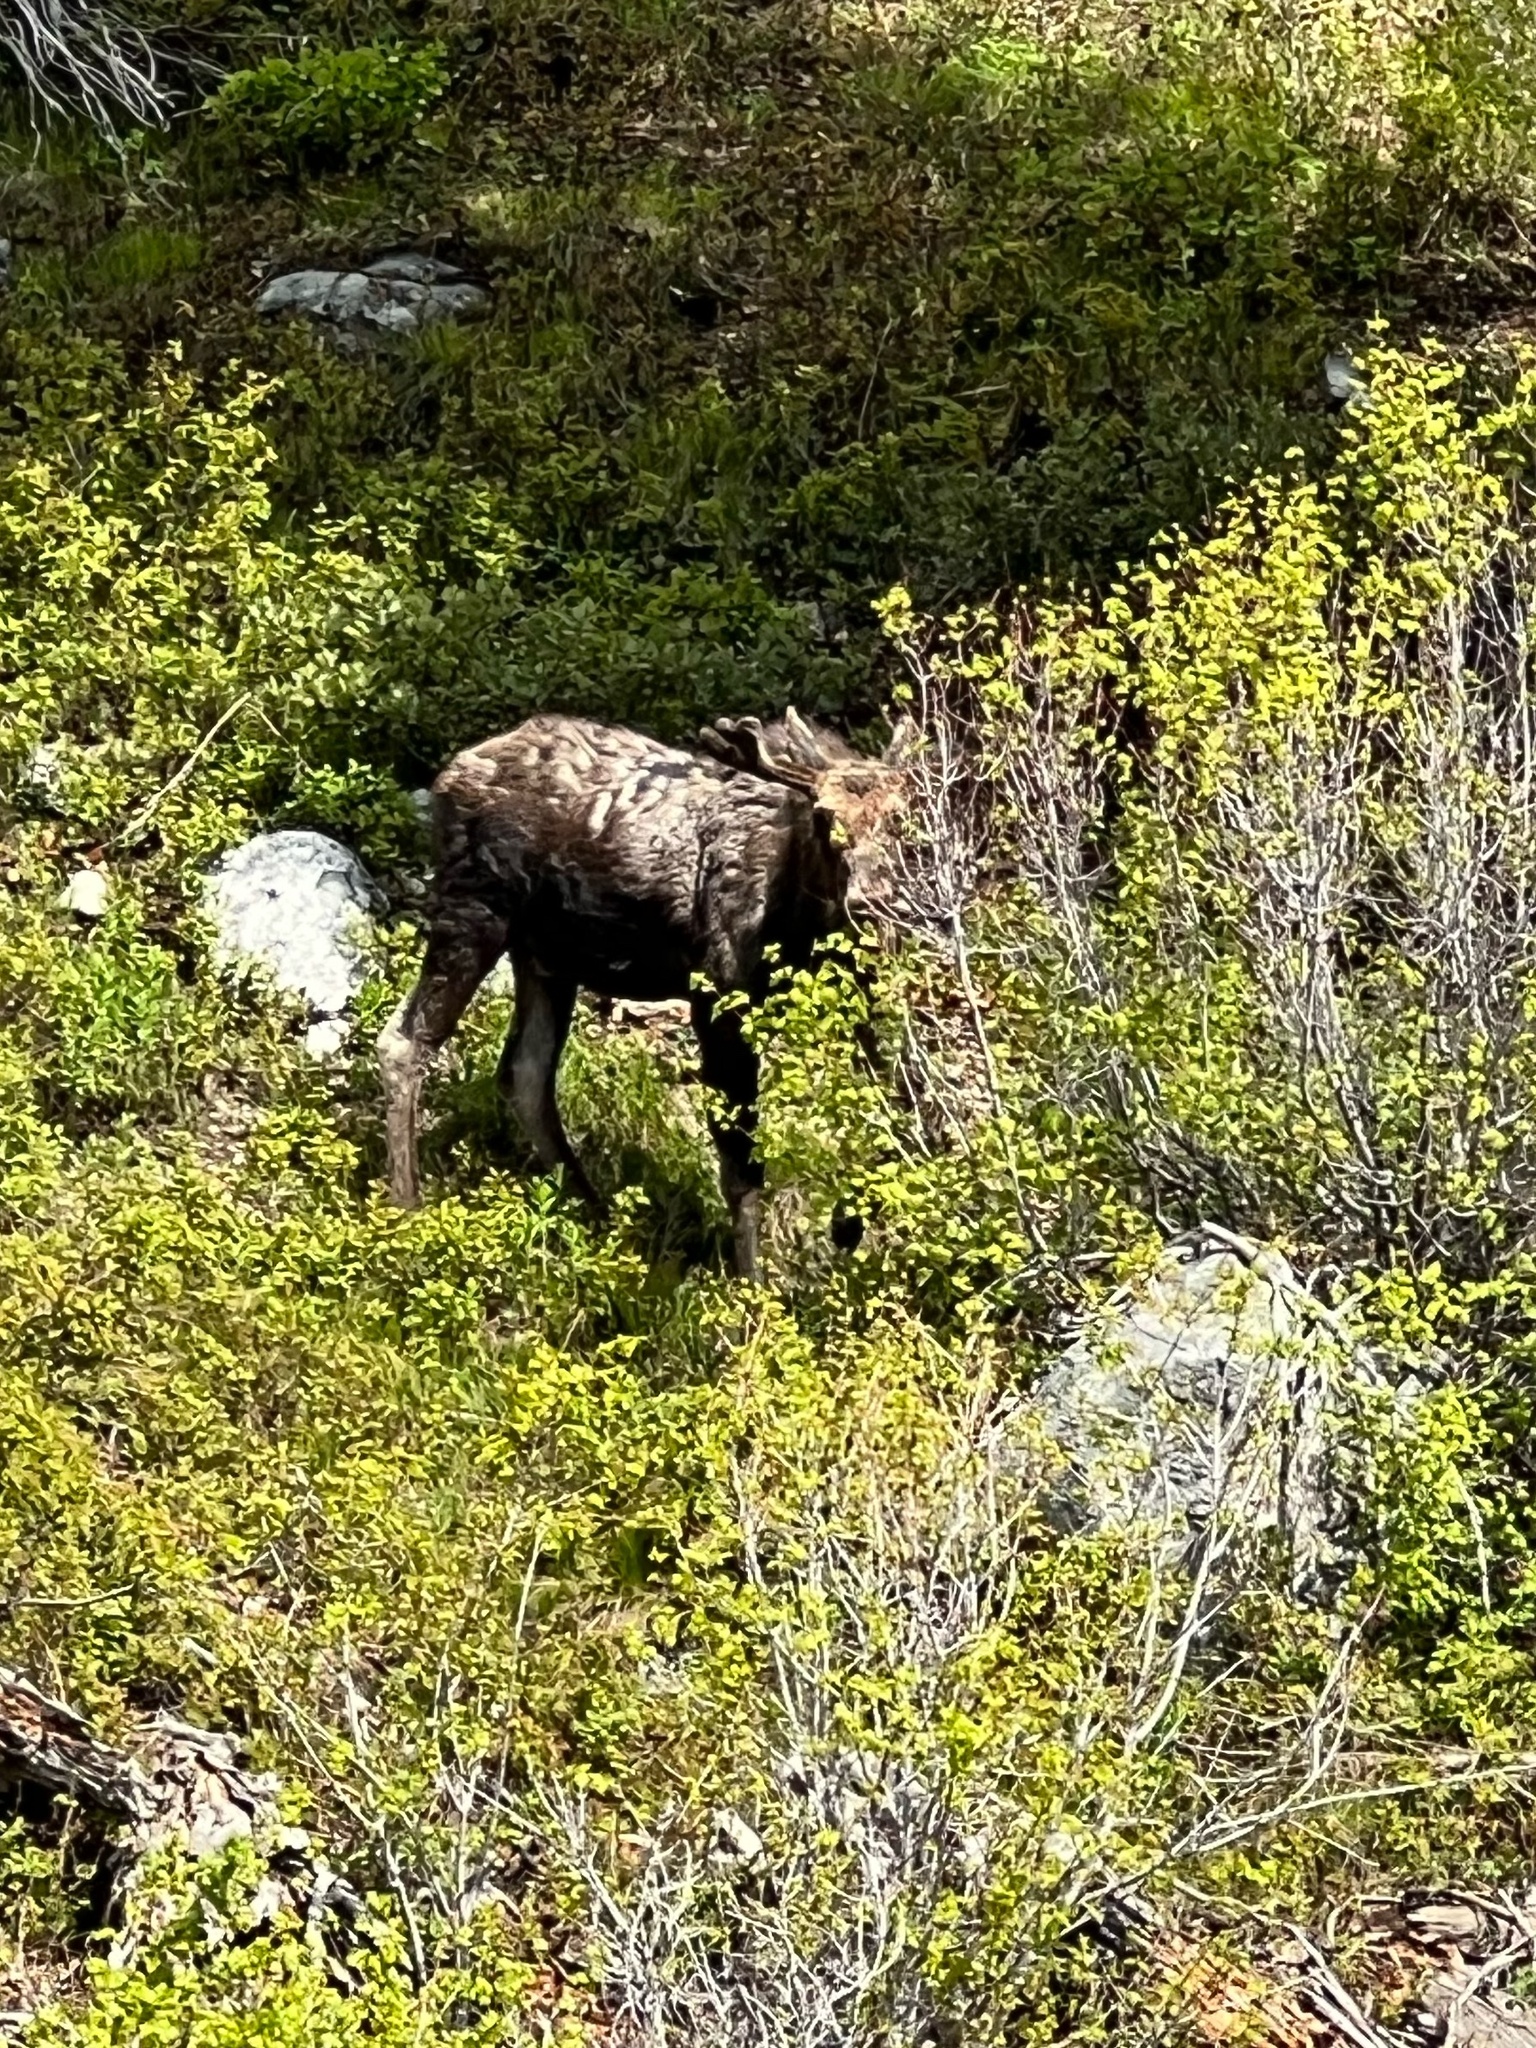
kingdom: Animalia
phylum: Chordata
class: Mammalia
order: Artiodactyla
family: Cervidae
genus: Alces
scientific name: Alces alces
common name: Moose
